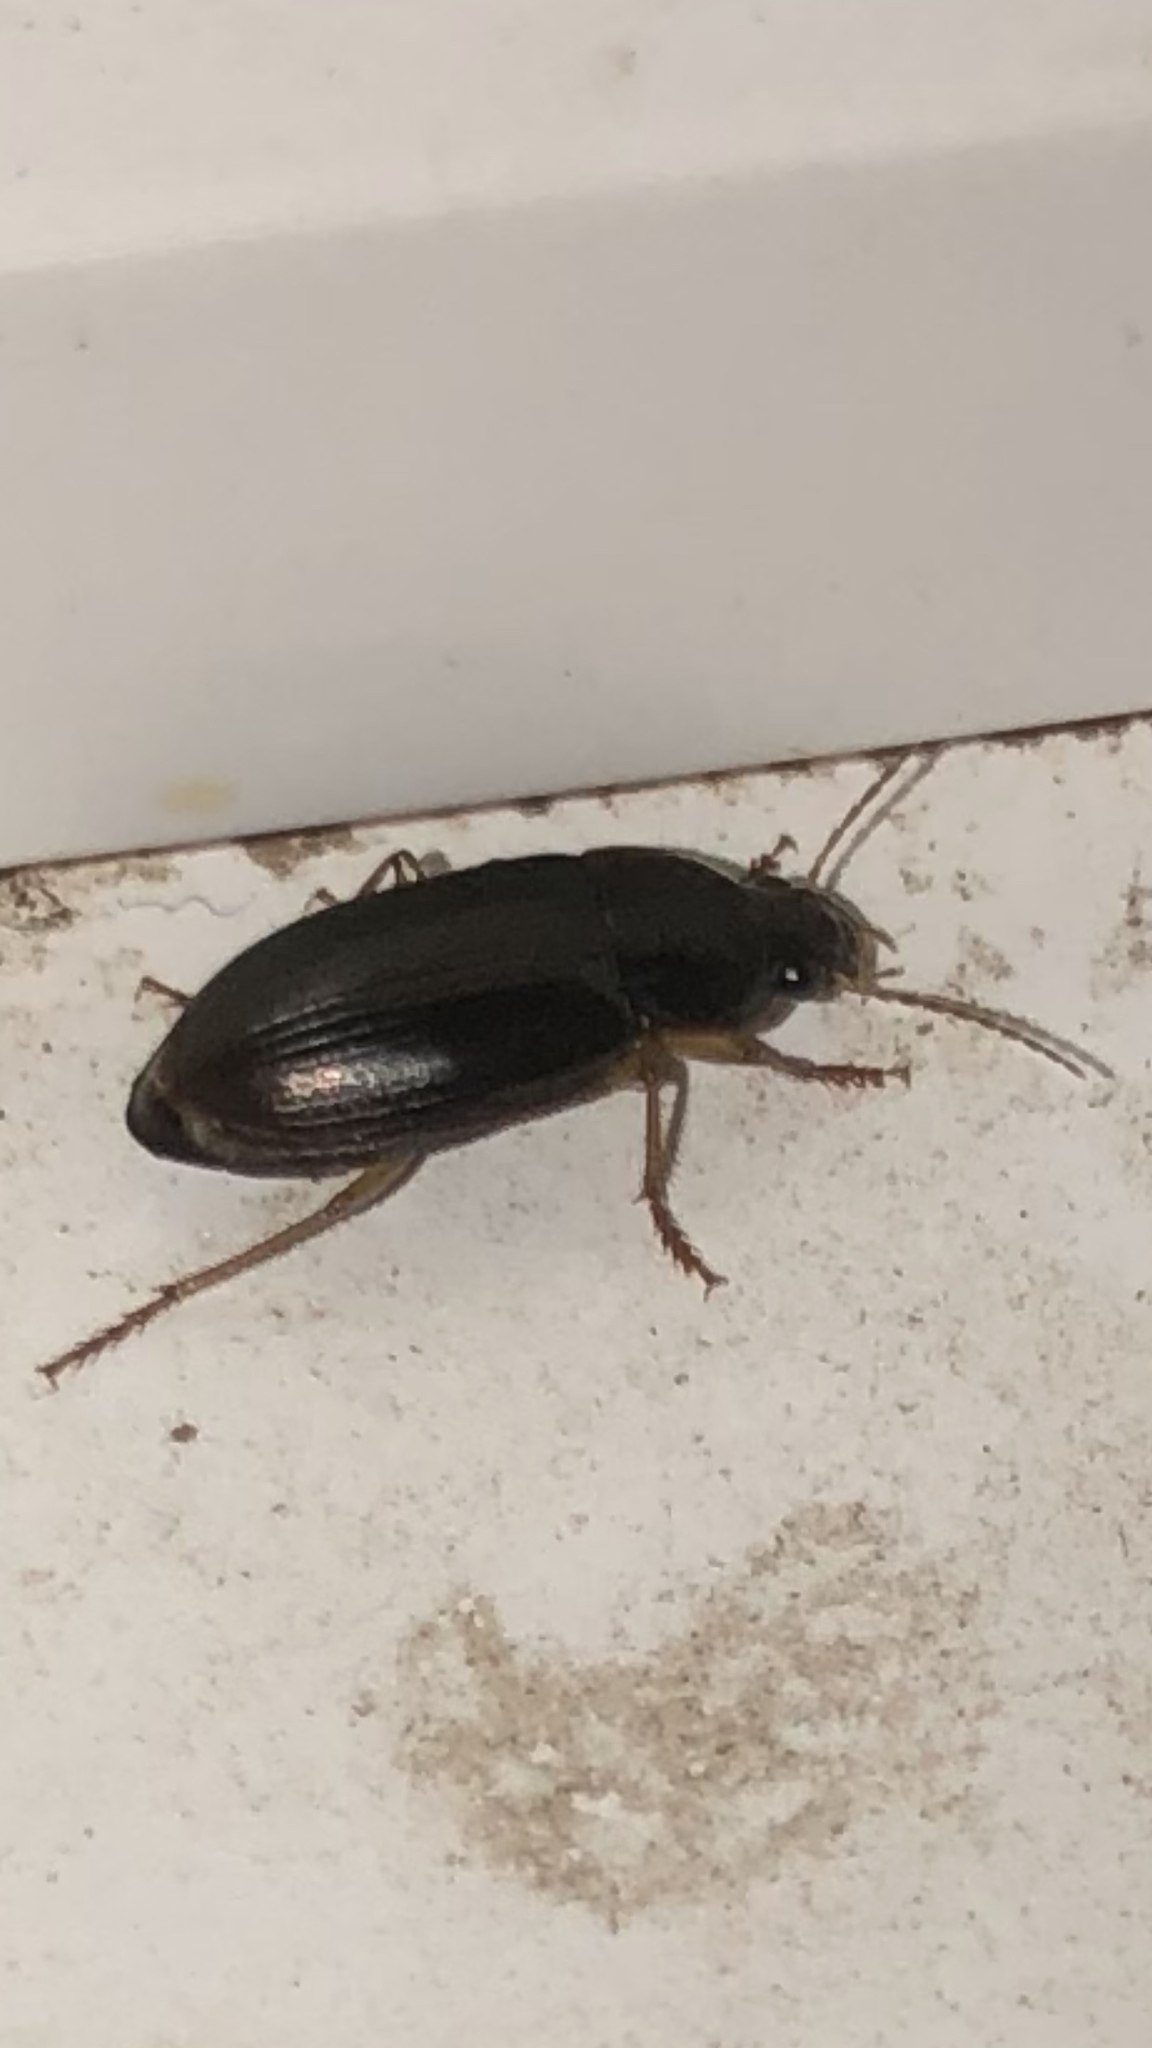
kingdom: Animalia
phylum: Arthropoda
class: Insecta
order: Coleoptera
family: Carabidae
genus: Notiobia
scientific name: Notiobia terminata
